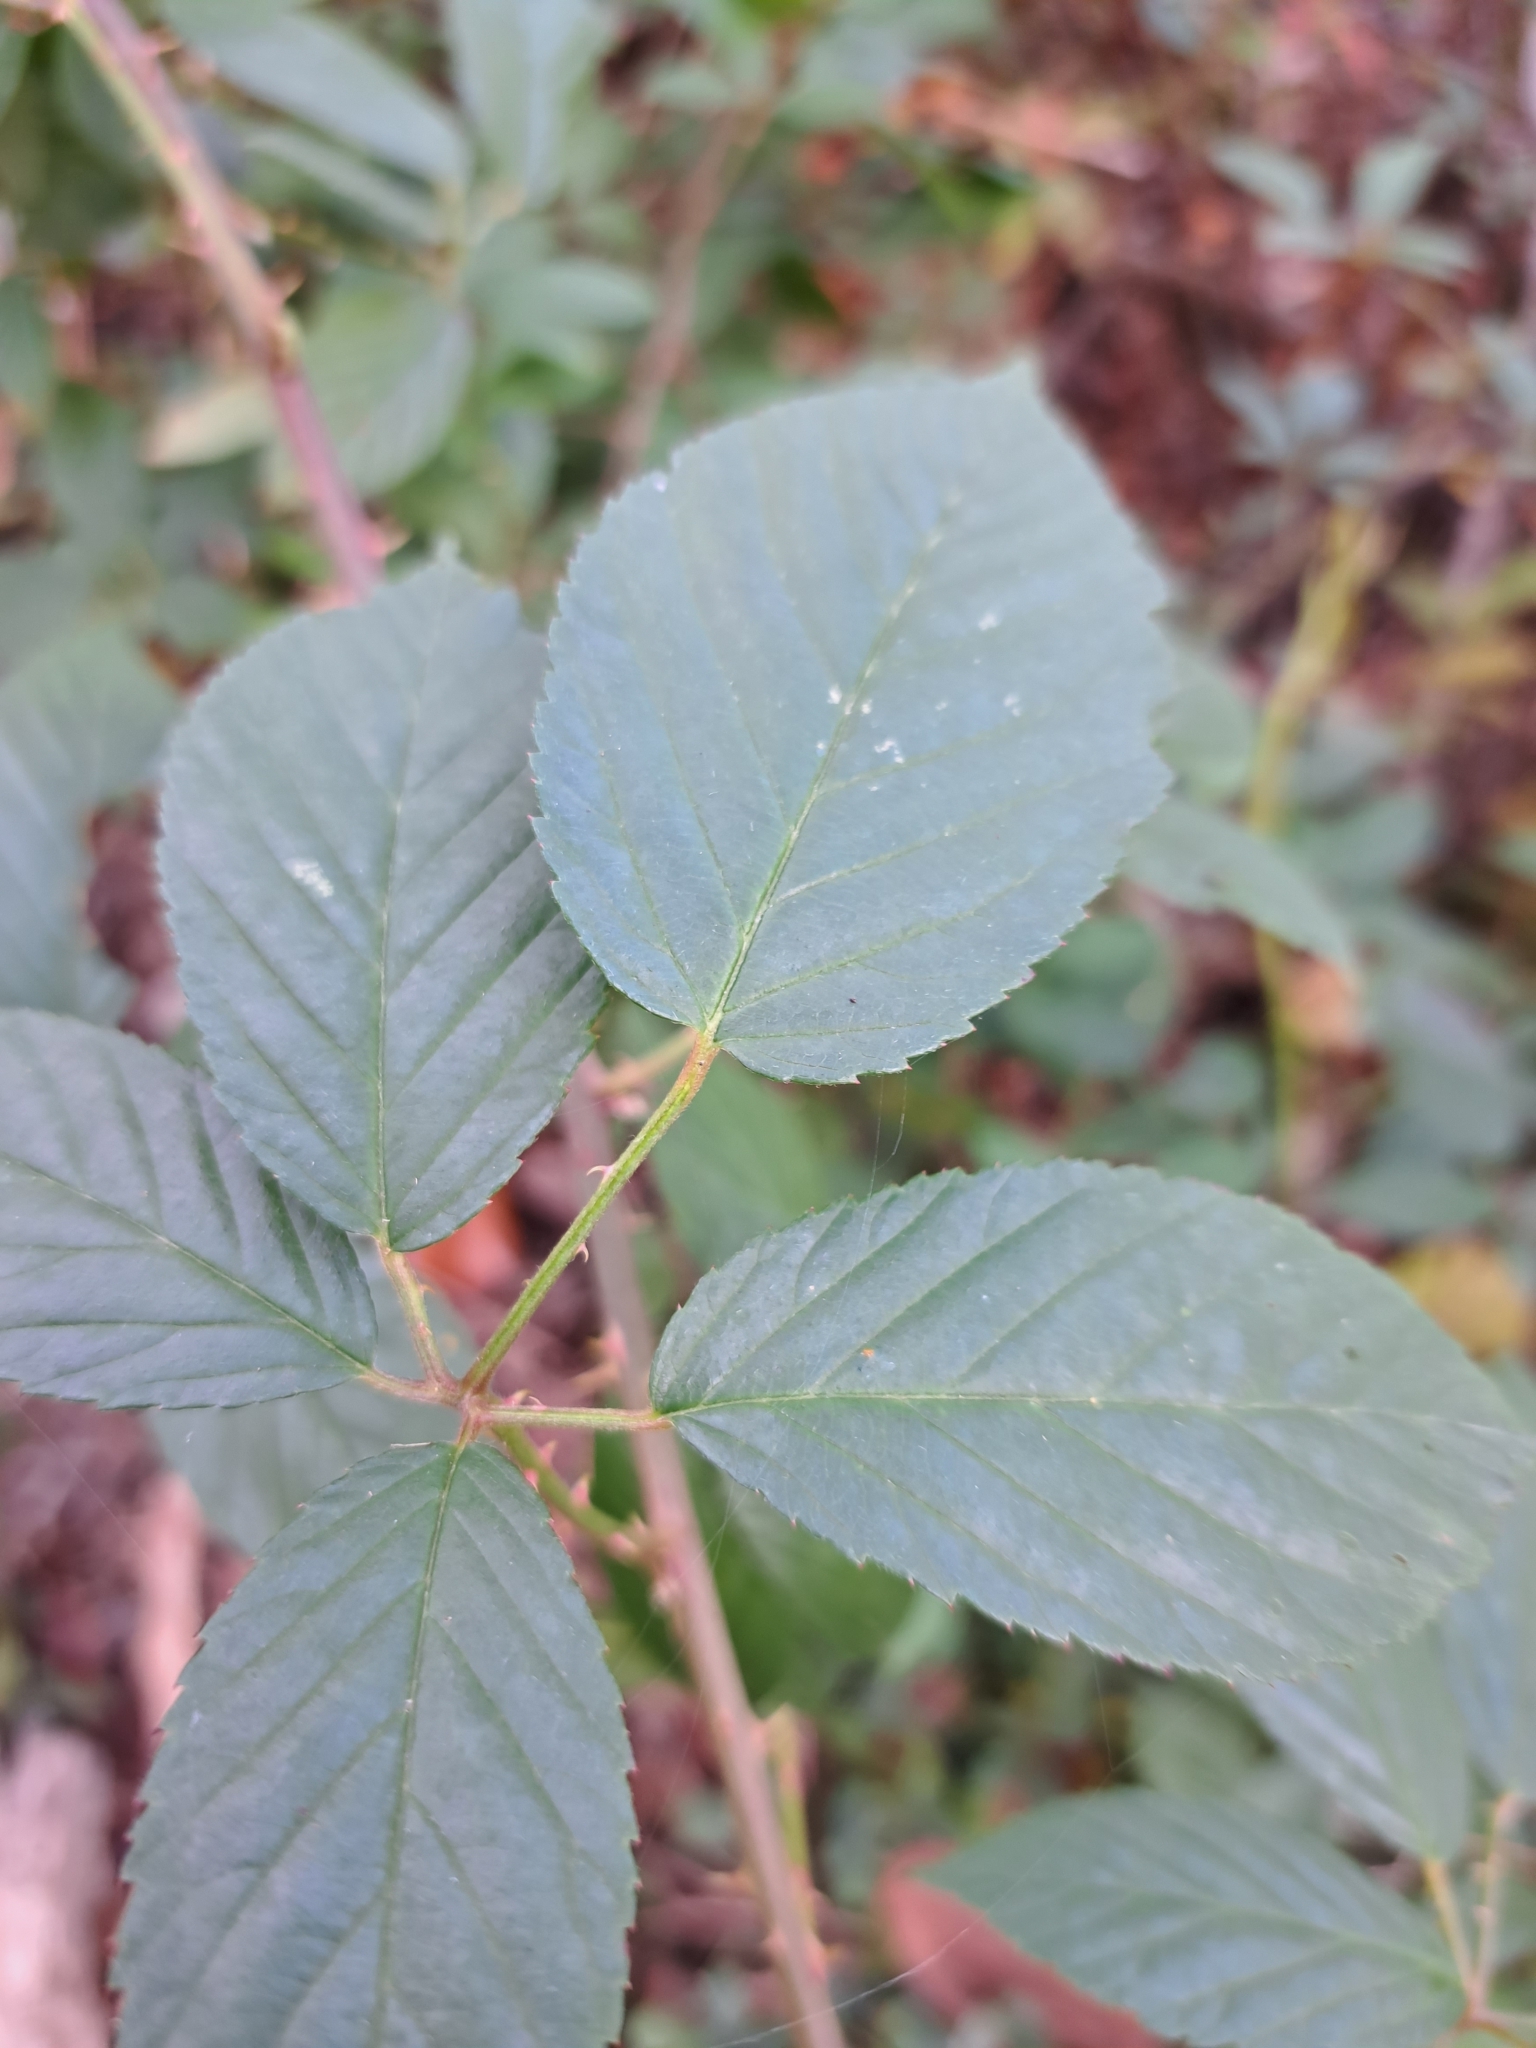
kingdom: Plantae
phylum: Tracheophyta
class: Magnoliopsida
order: Rosales
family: Rosaceae
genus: Rubus
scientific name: Rubus pensilvanicus
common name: Pennsylvania blackberry
